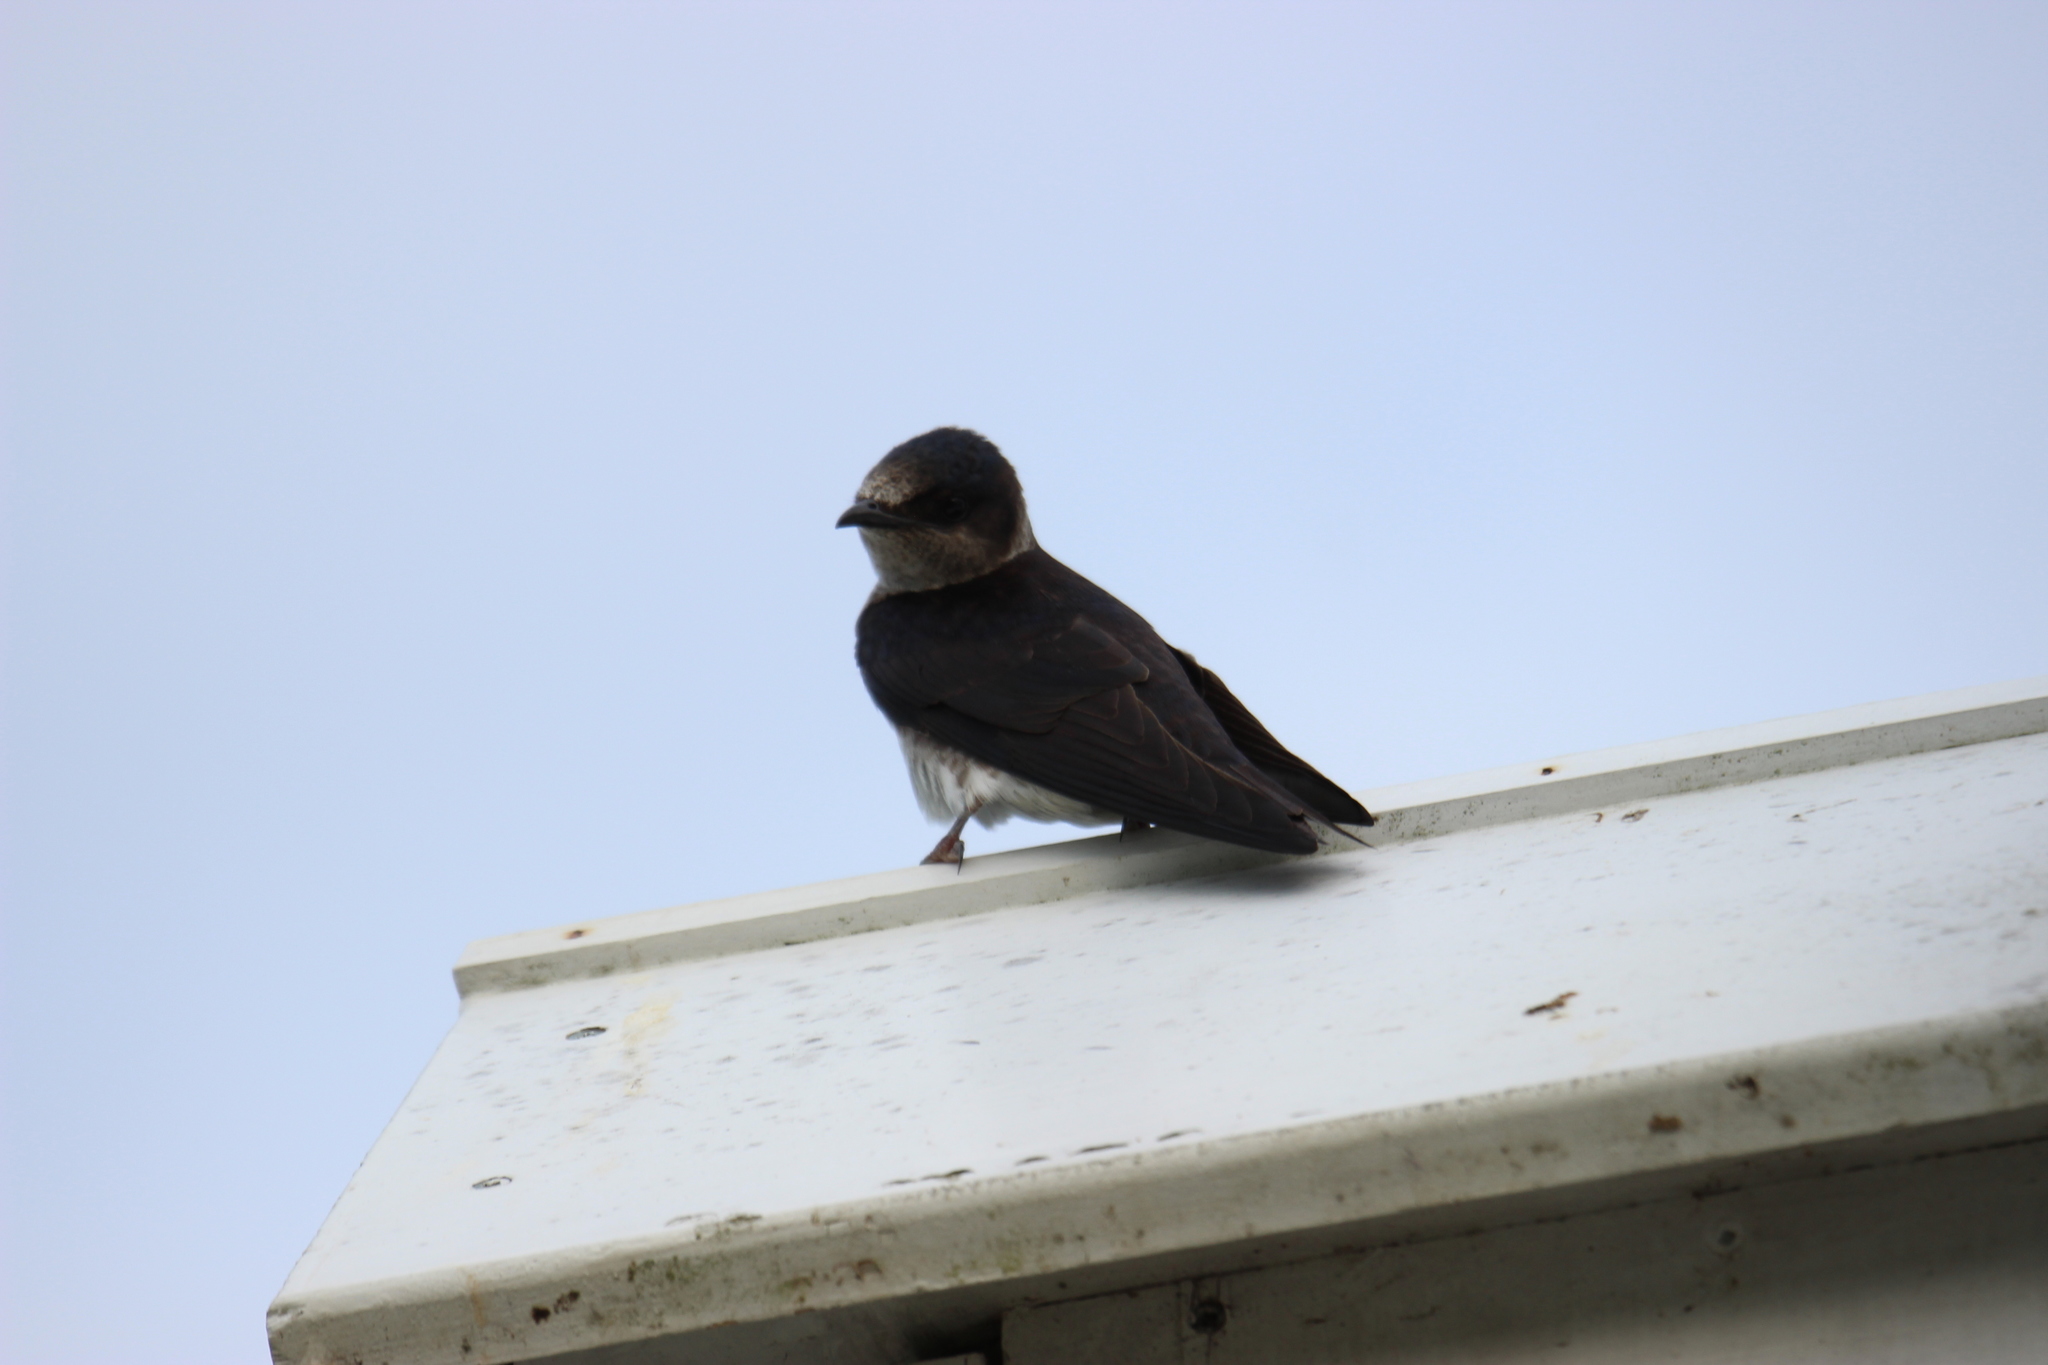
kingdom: Animalia
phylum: Chordata
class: Aves
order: Passeriformes
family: Hirundinidae
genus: Progne
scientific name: Progne subis
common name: Purple martin
